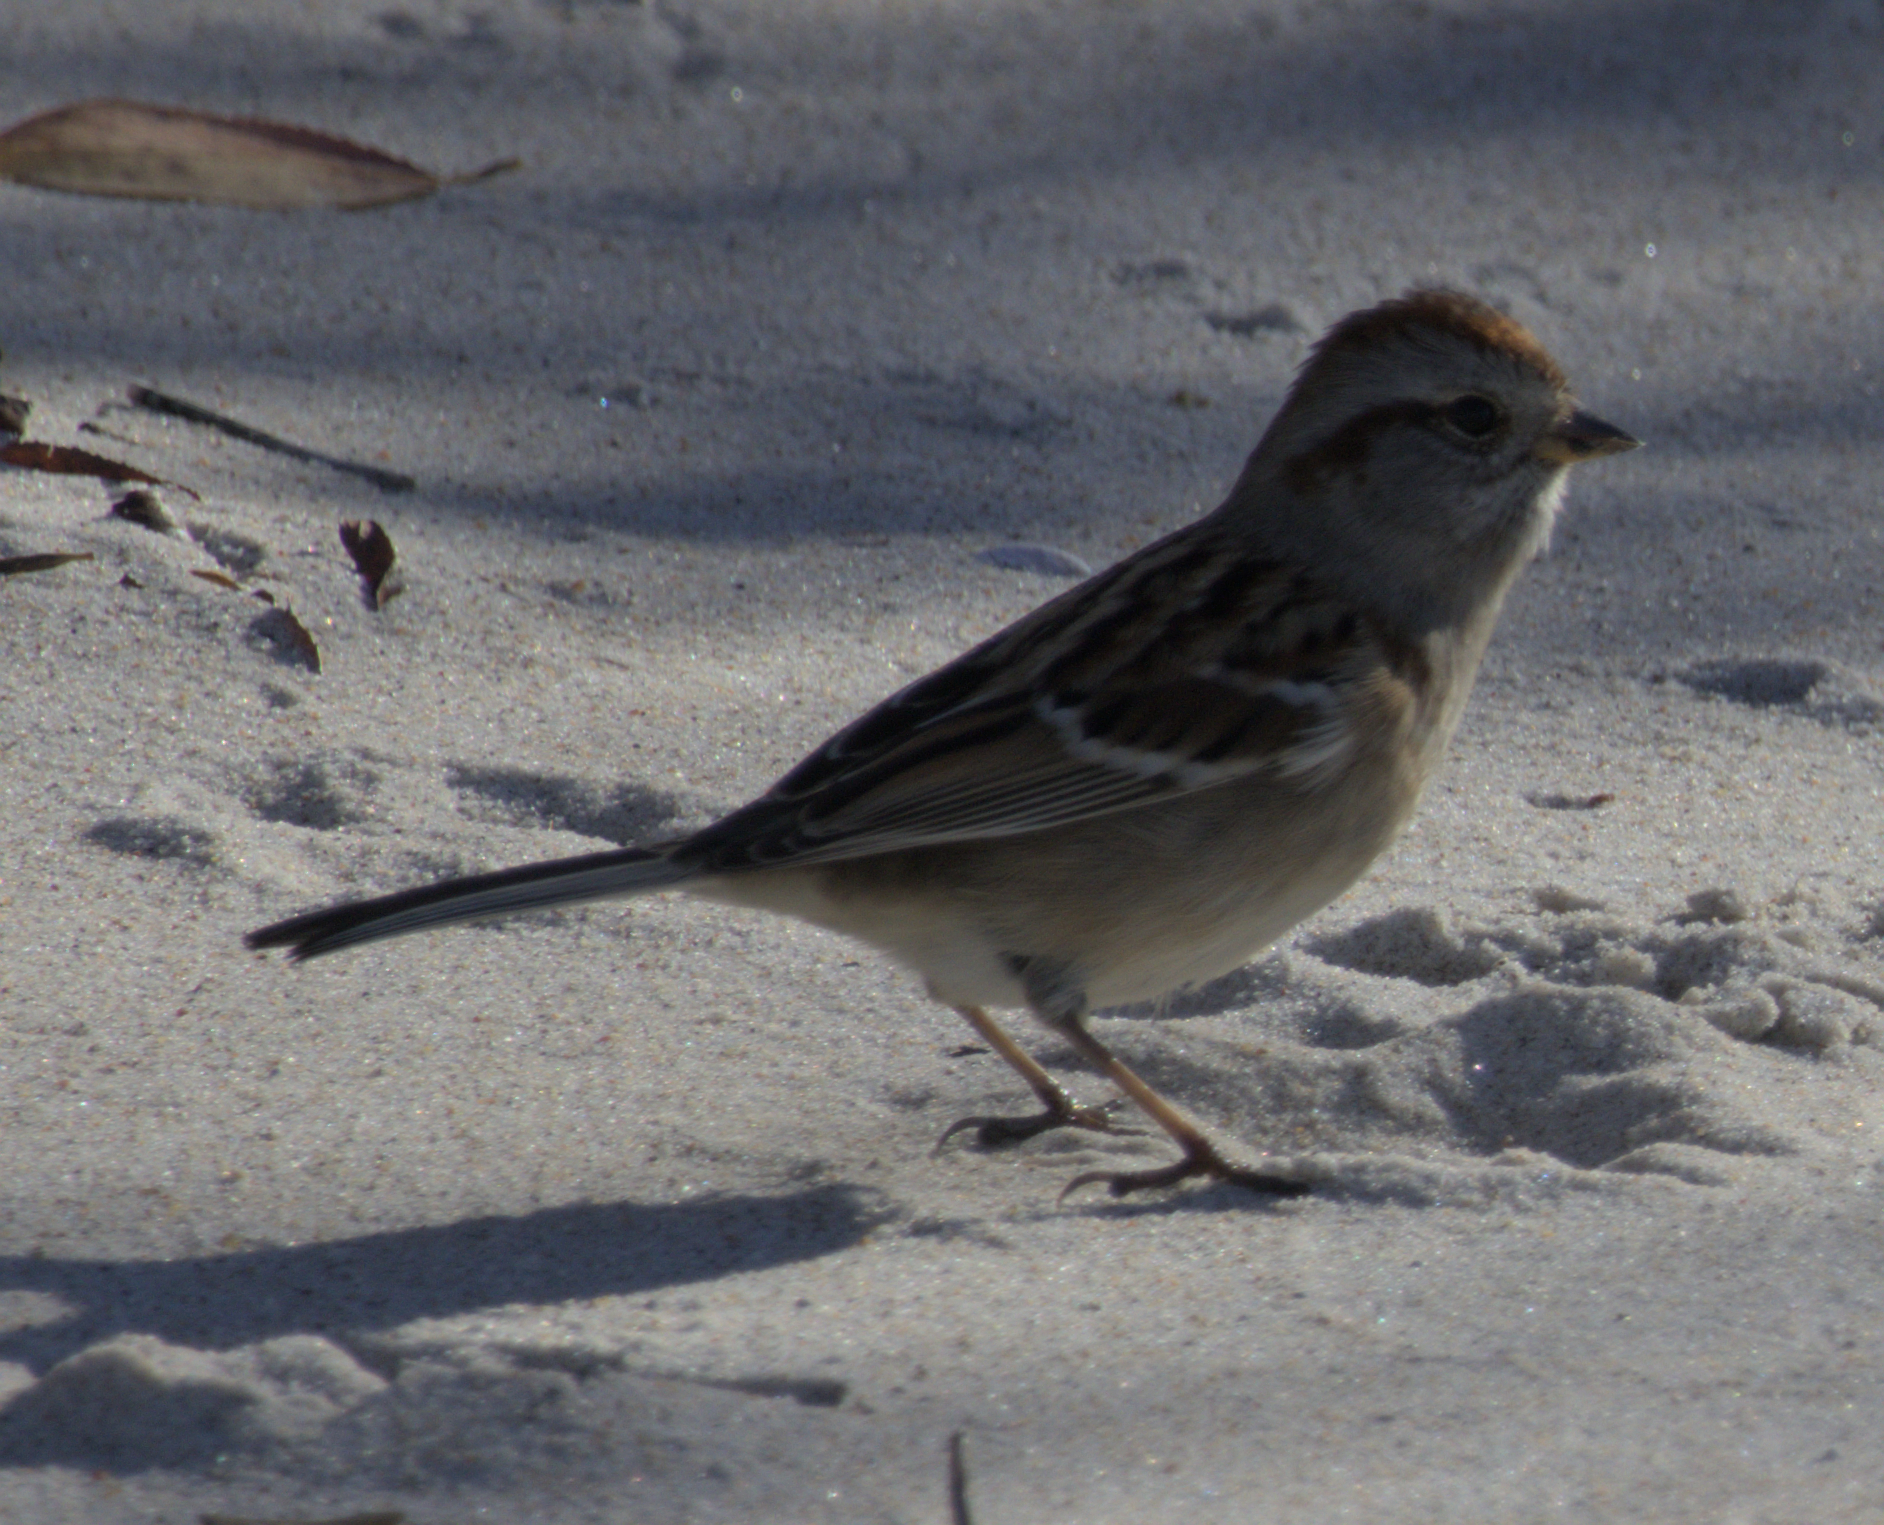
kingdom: Animalia
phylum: Chordata
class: Aves
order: Passeriformes
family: Passerellidae
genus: Spizelloides
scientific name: Spizelloides arborea
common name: American tree sparrow
